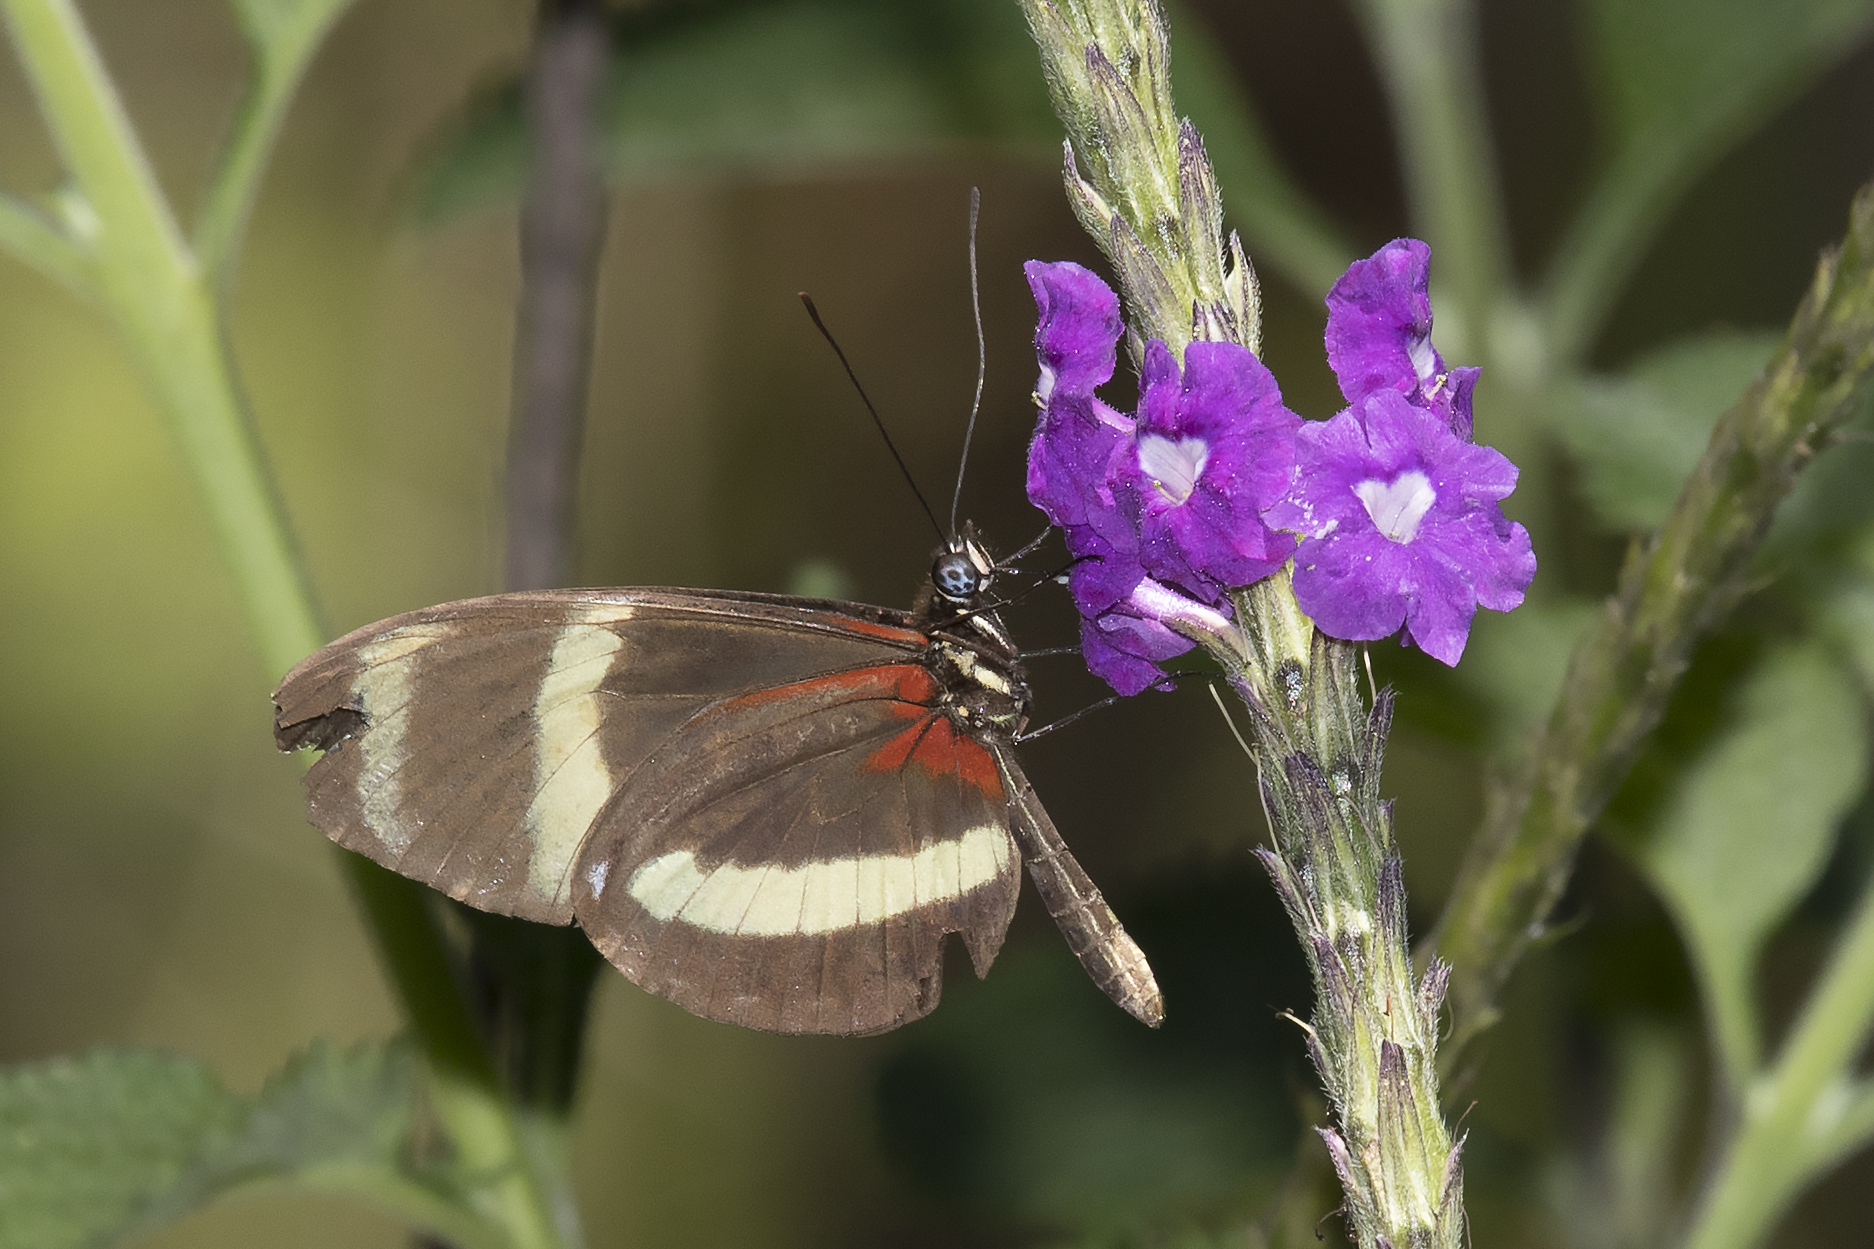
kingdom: Animalia
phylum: Arthropoda
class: Insecta
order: Lepidoptera
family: Nymphalidae
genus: Heliconius
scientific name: Heliconius pachinus
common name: Pachinus longwing
